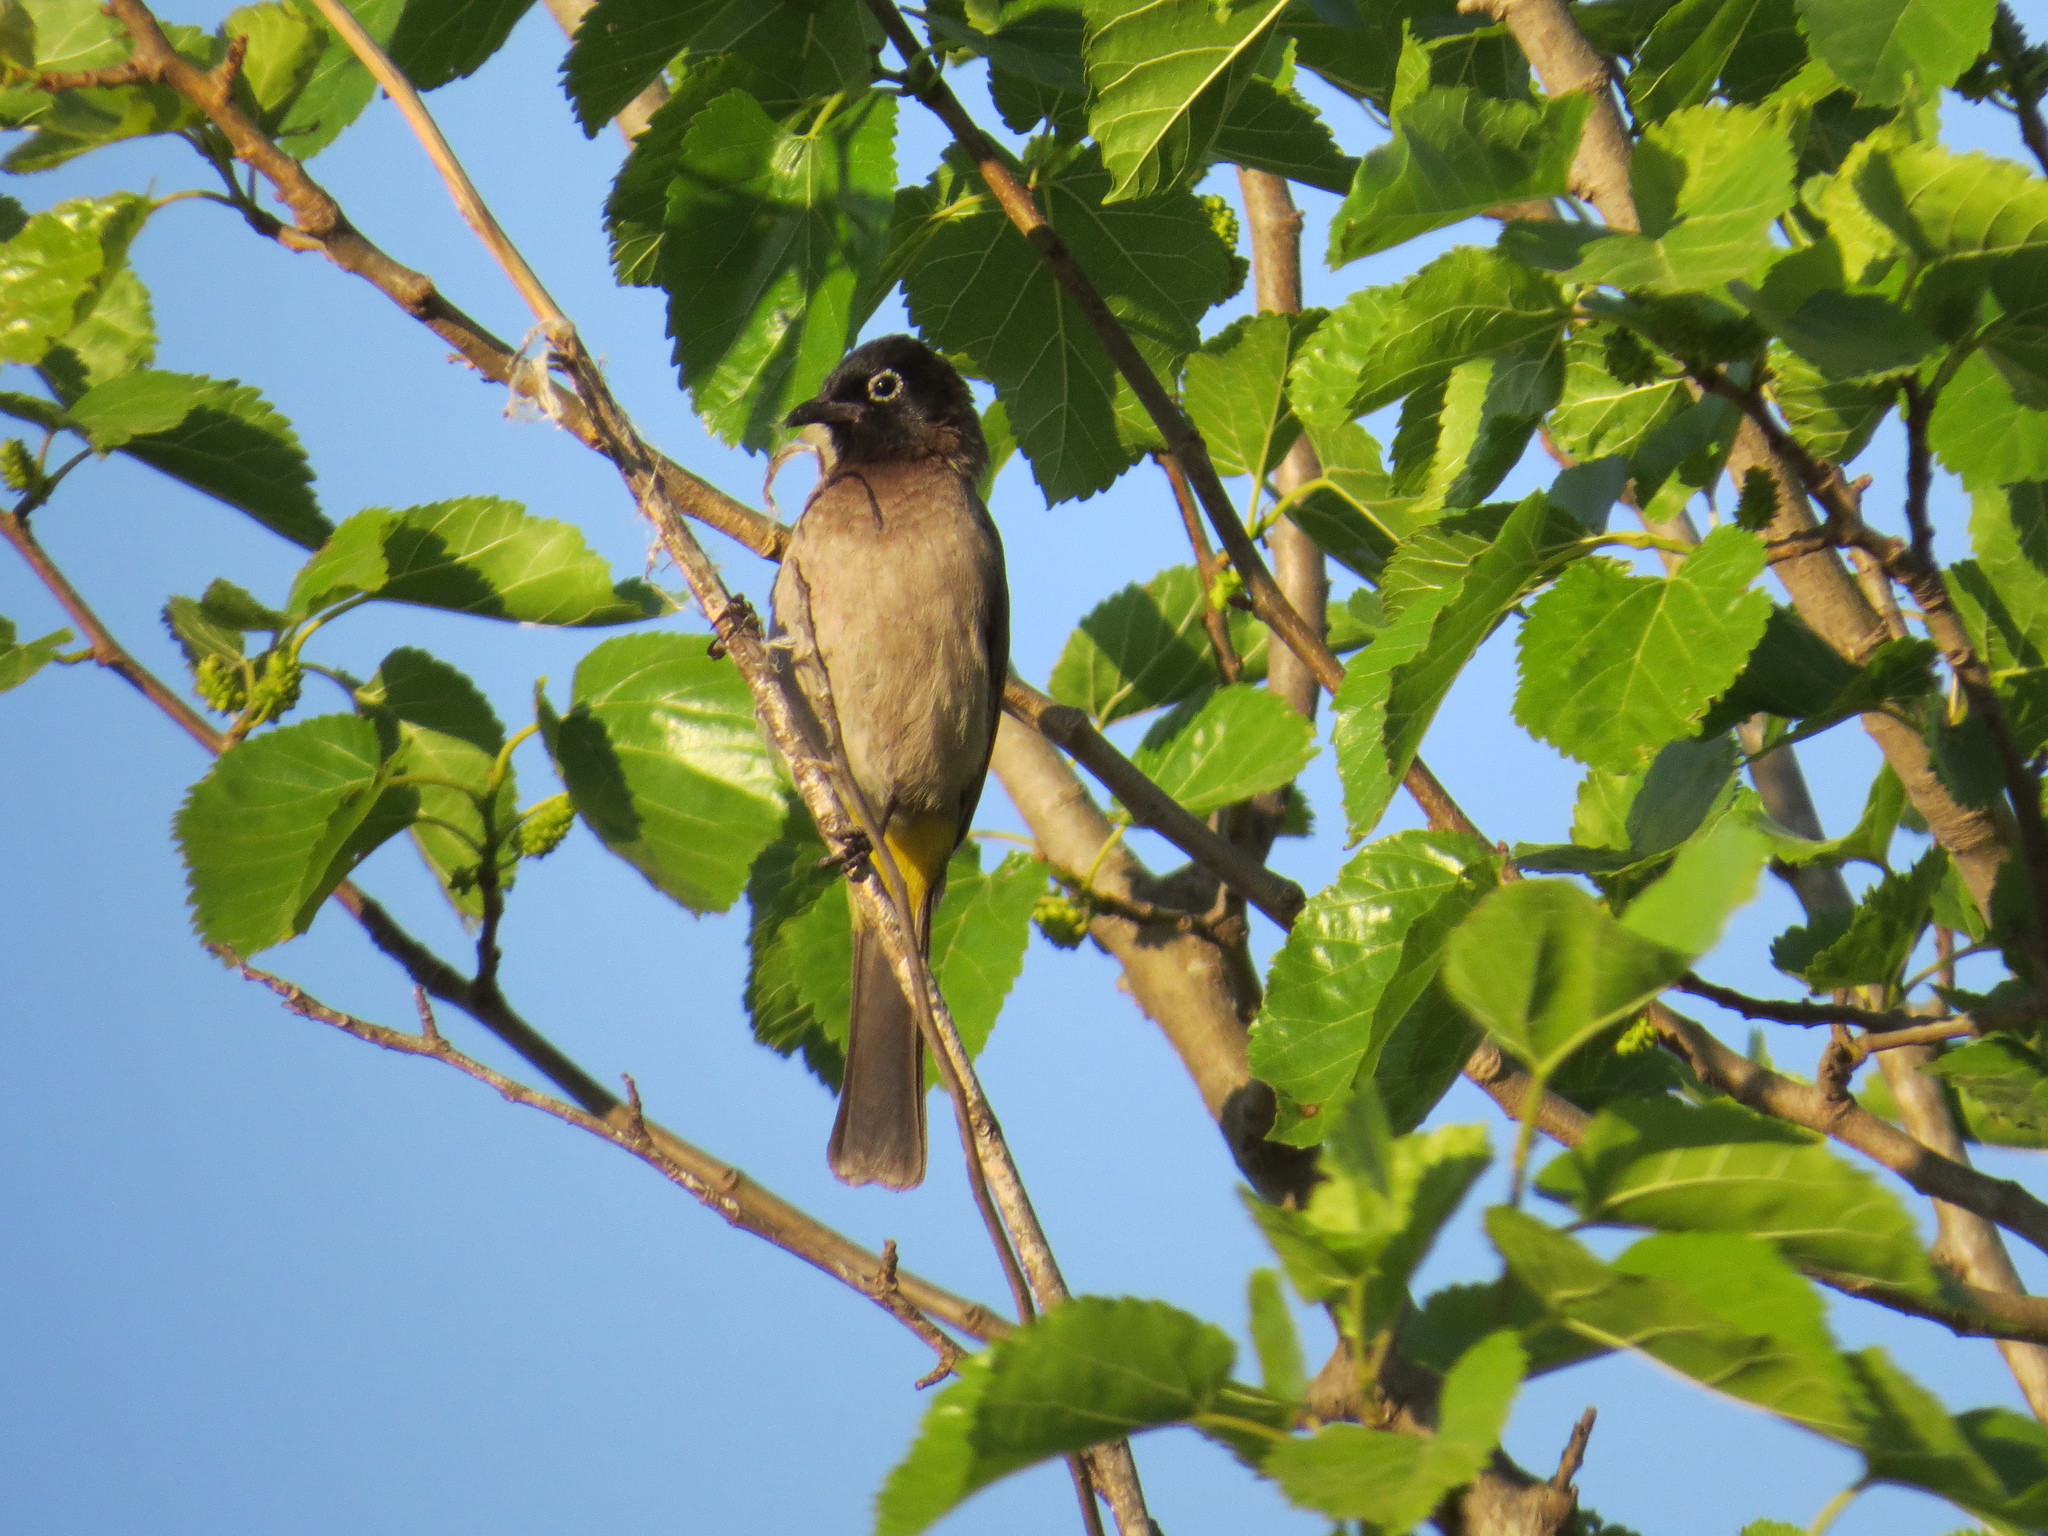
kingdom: Animalia
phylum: Chordata
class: Aves
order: Passeriformes
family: Pycnonotidae
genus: Pycnonotus
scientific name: Pycnonotus xanthopygos
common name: White-spectacled bulbul
